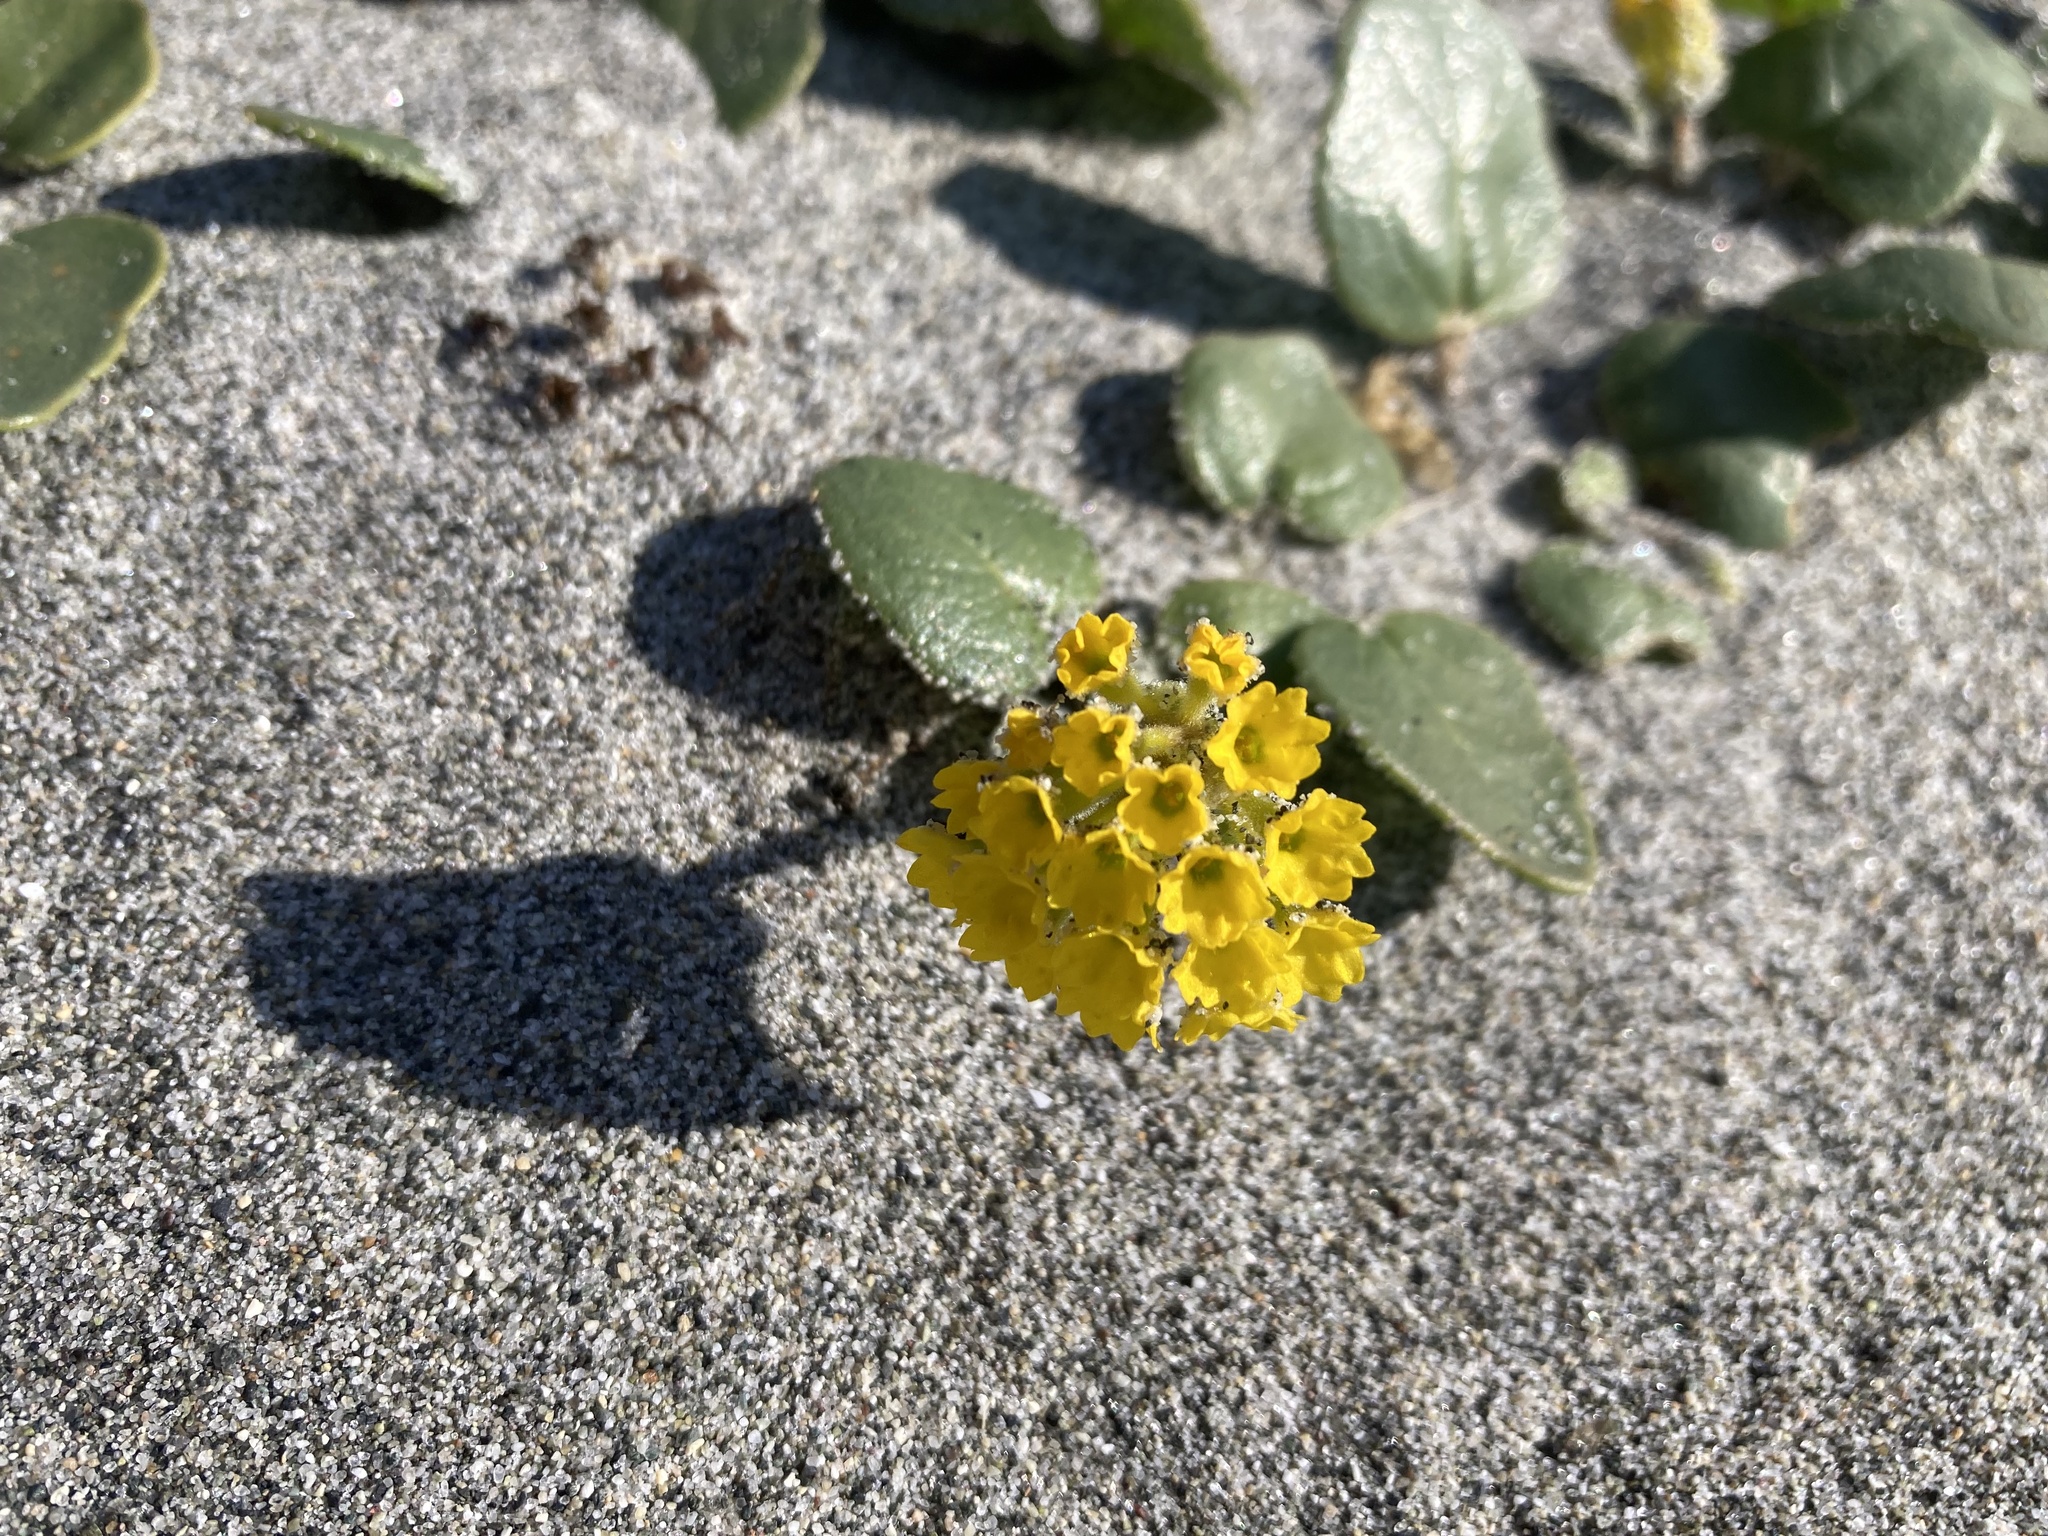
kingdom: Plantae
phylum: Tracheophyta
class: Magnoliopsida
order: Caryophyllales
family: Nyctaginaceae
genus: Abronia
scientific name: Abronia latifolia
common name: Yellow sand-verbena
